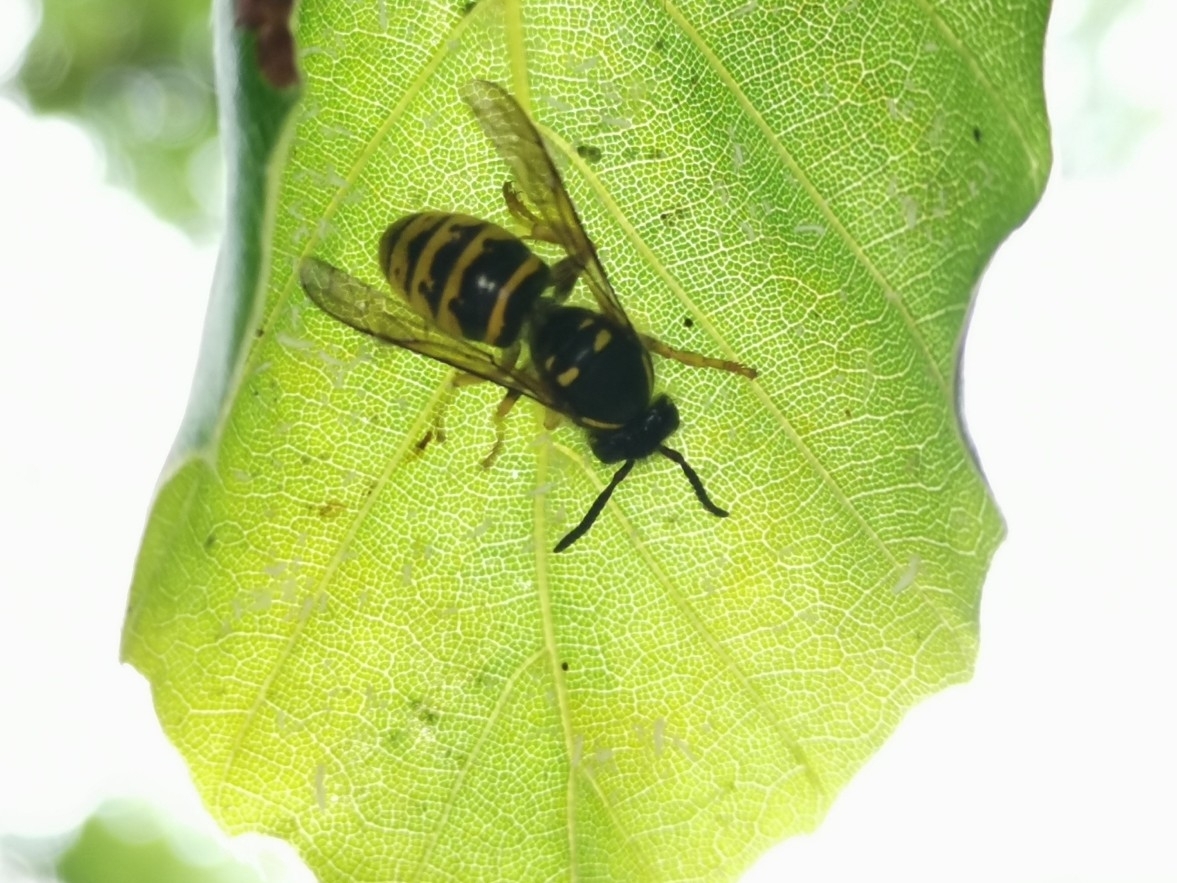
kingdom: Animalia
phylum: Arthropoda
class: Insecta
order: Hymenoptera
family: Vespidae
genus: Dolichovespula
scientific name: Dolichovespula saxonica
